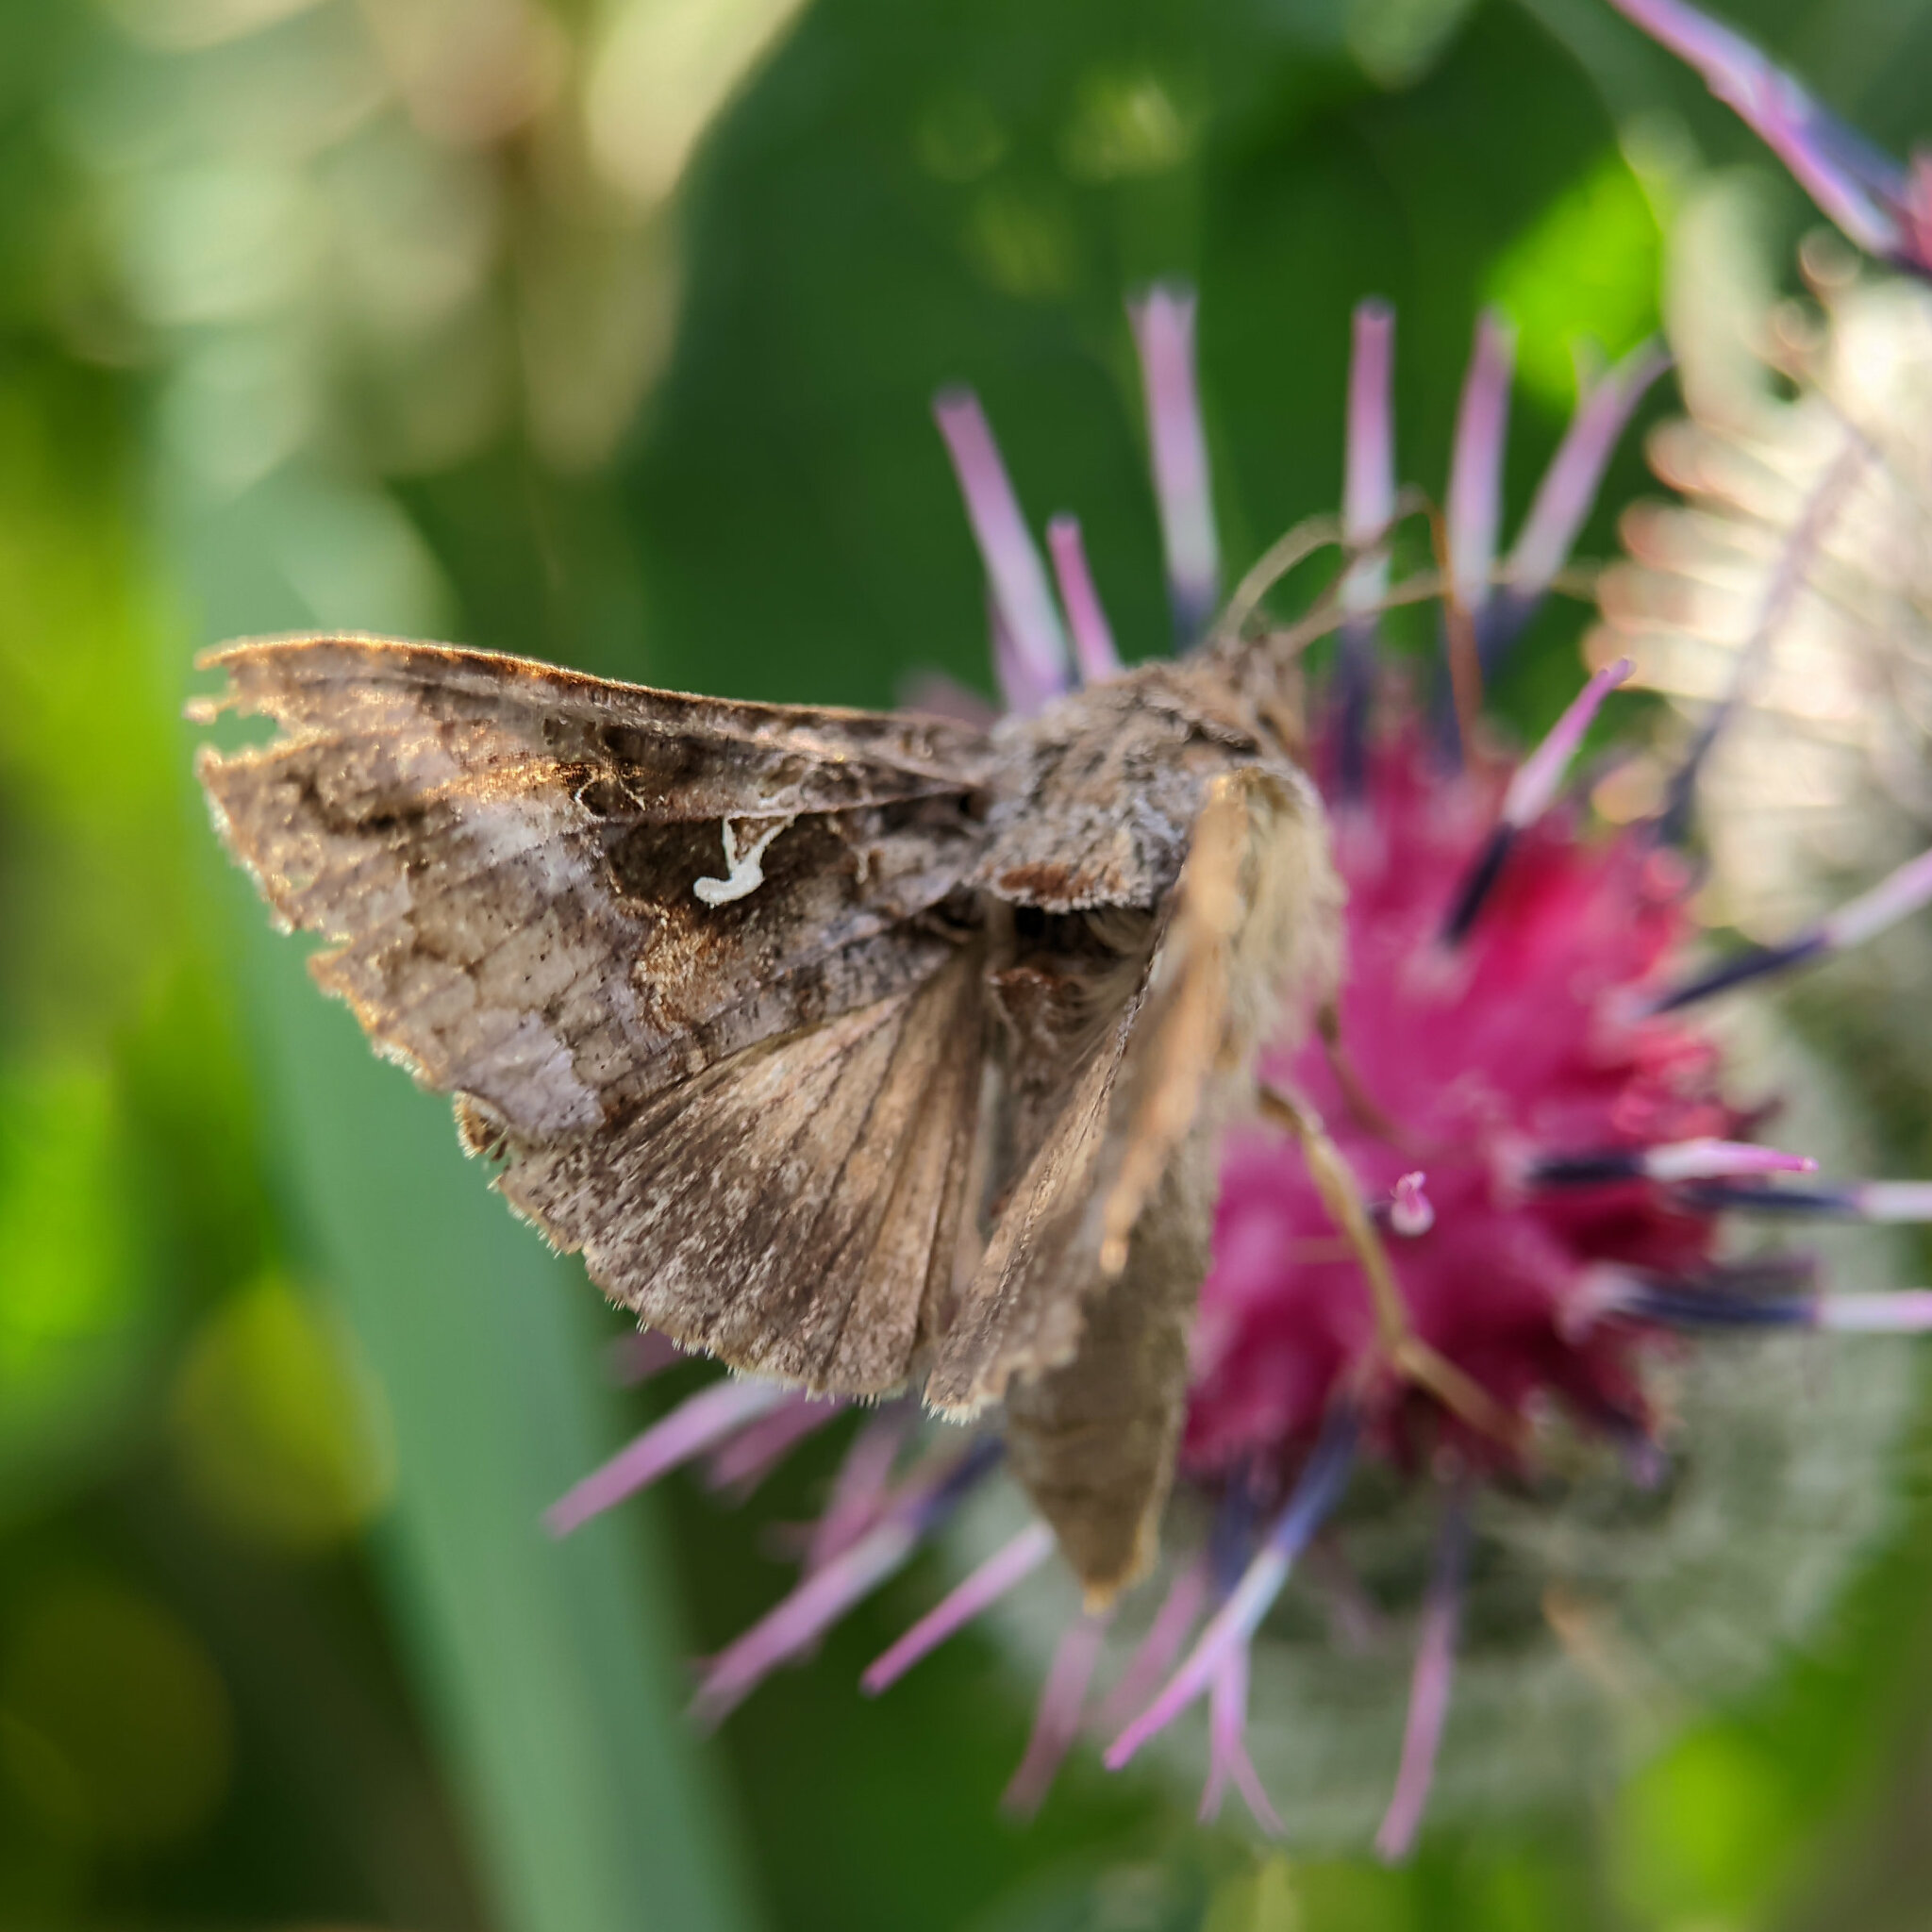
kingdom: Animalia
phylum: Arthropoda
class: Insecta
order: Lepidoptera
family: Noctuidae
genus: Autographa
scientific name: Autographa gamma
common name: Silver y
